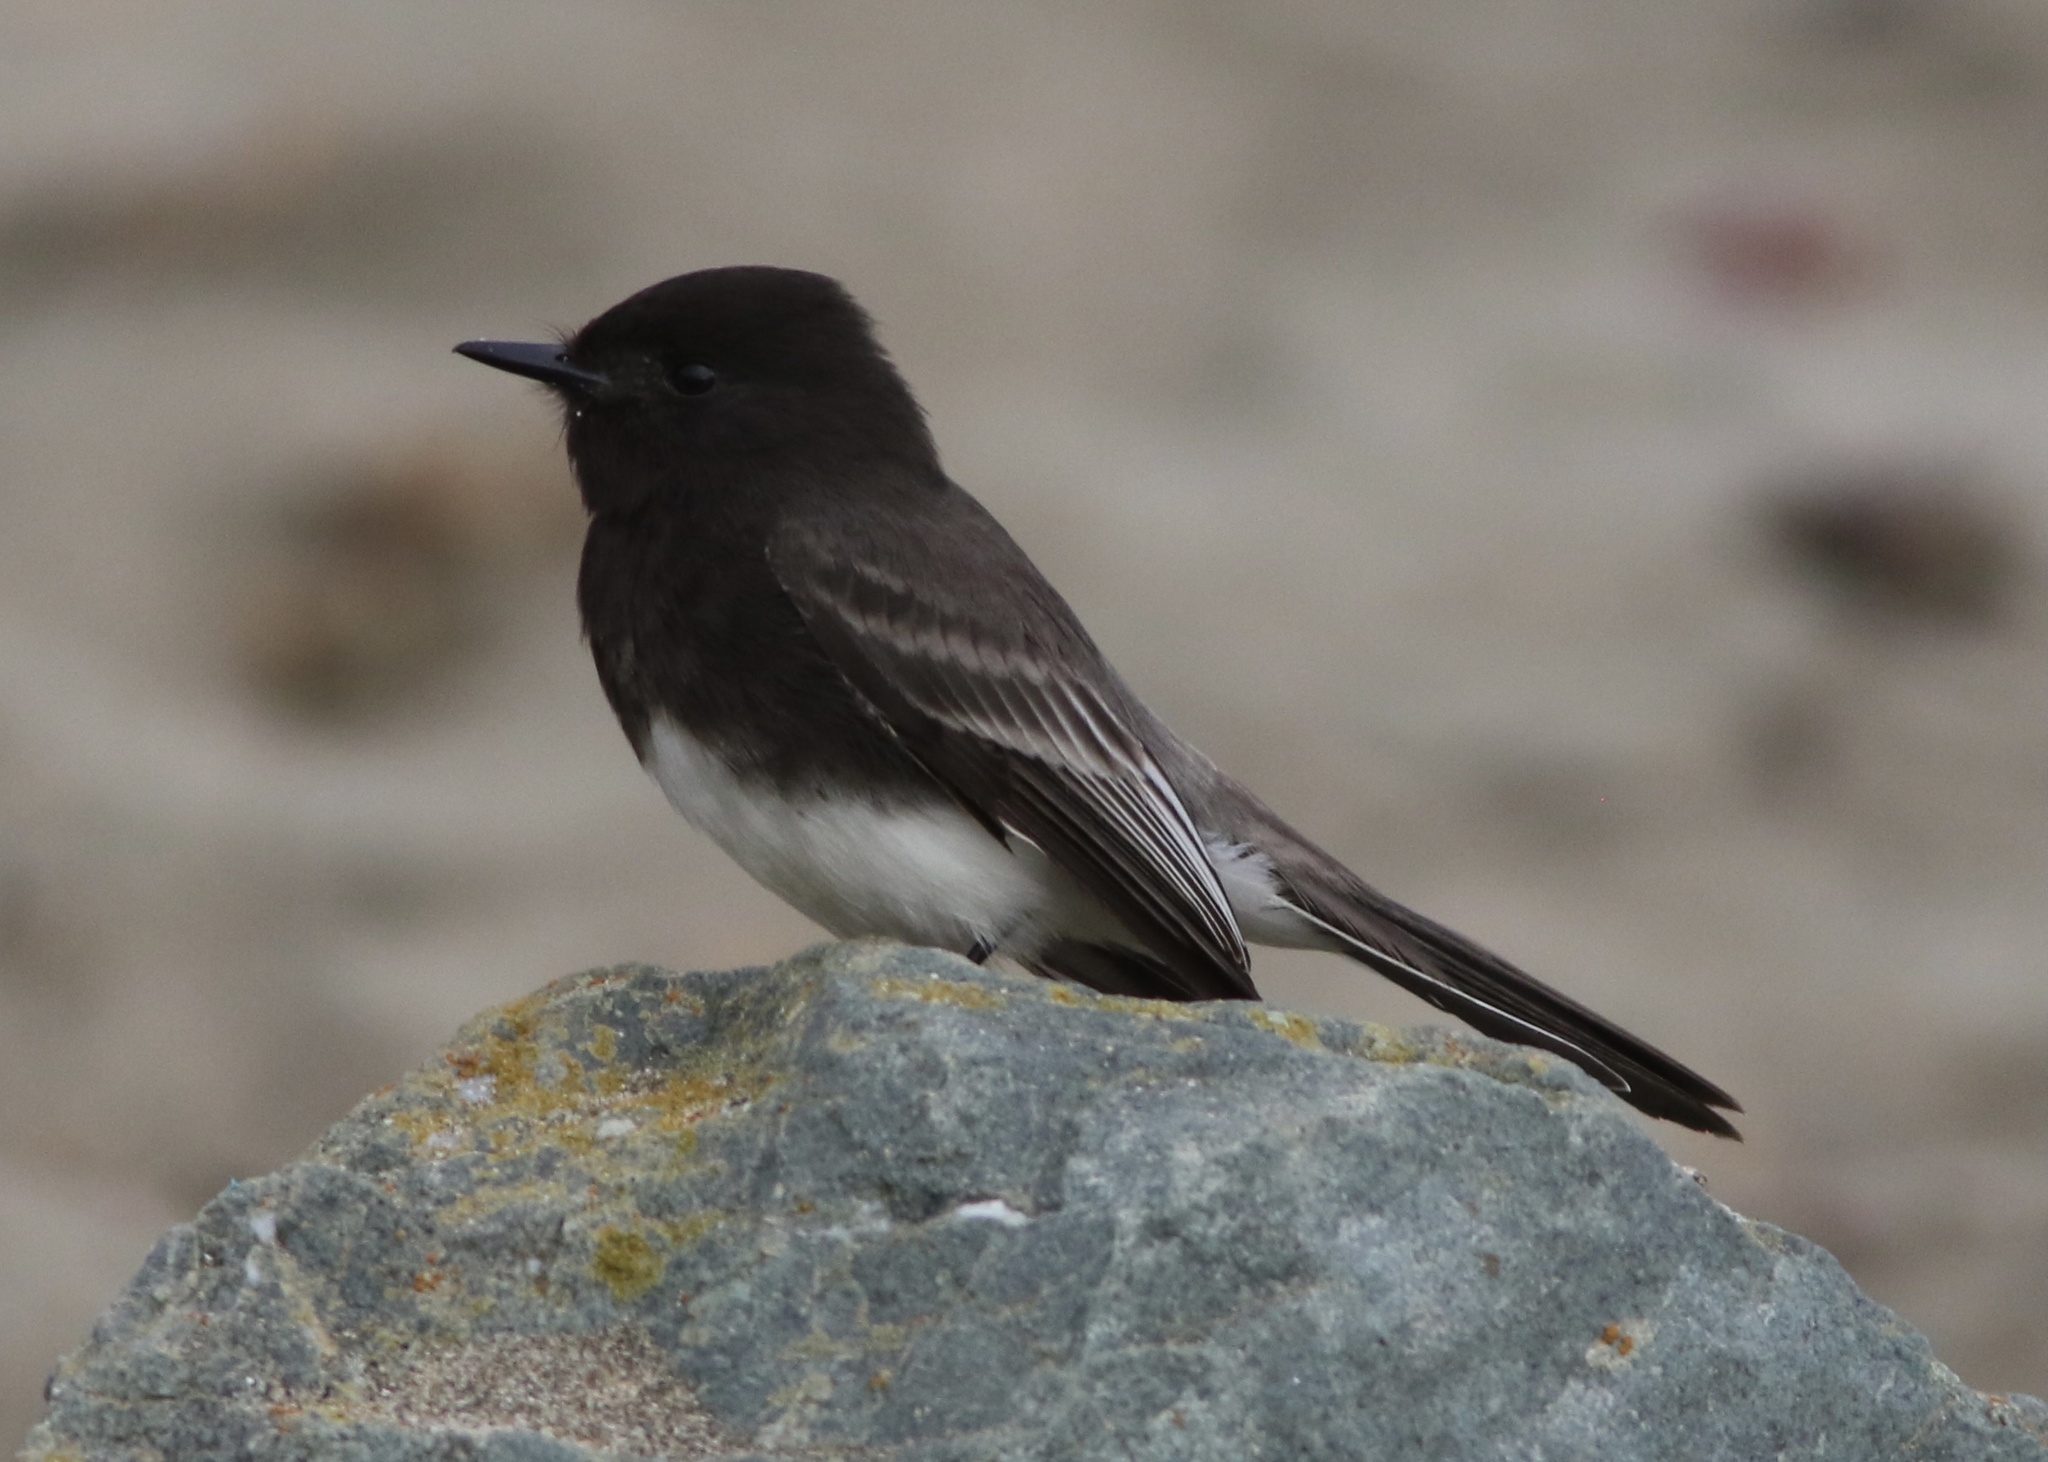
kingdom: Animalia
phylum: Chordata
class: Aves
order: Passeriformes
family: Tyrannidae
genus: Sayornis
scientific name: Sayornis nigricans
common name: Black phoebe
